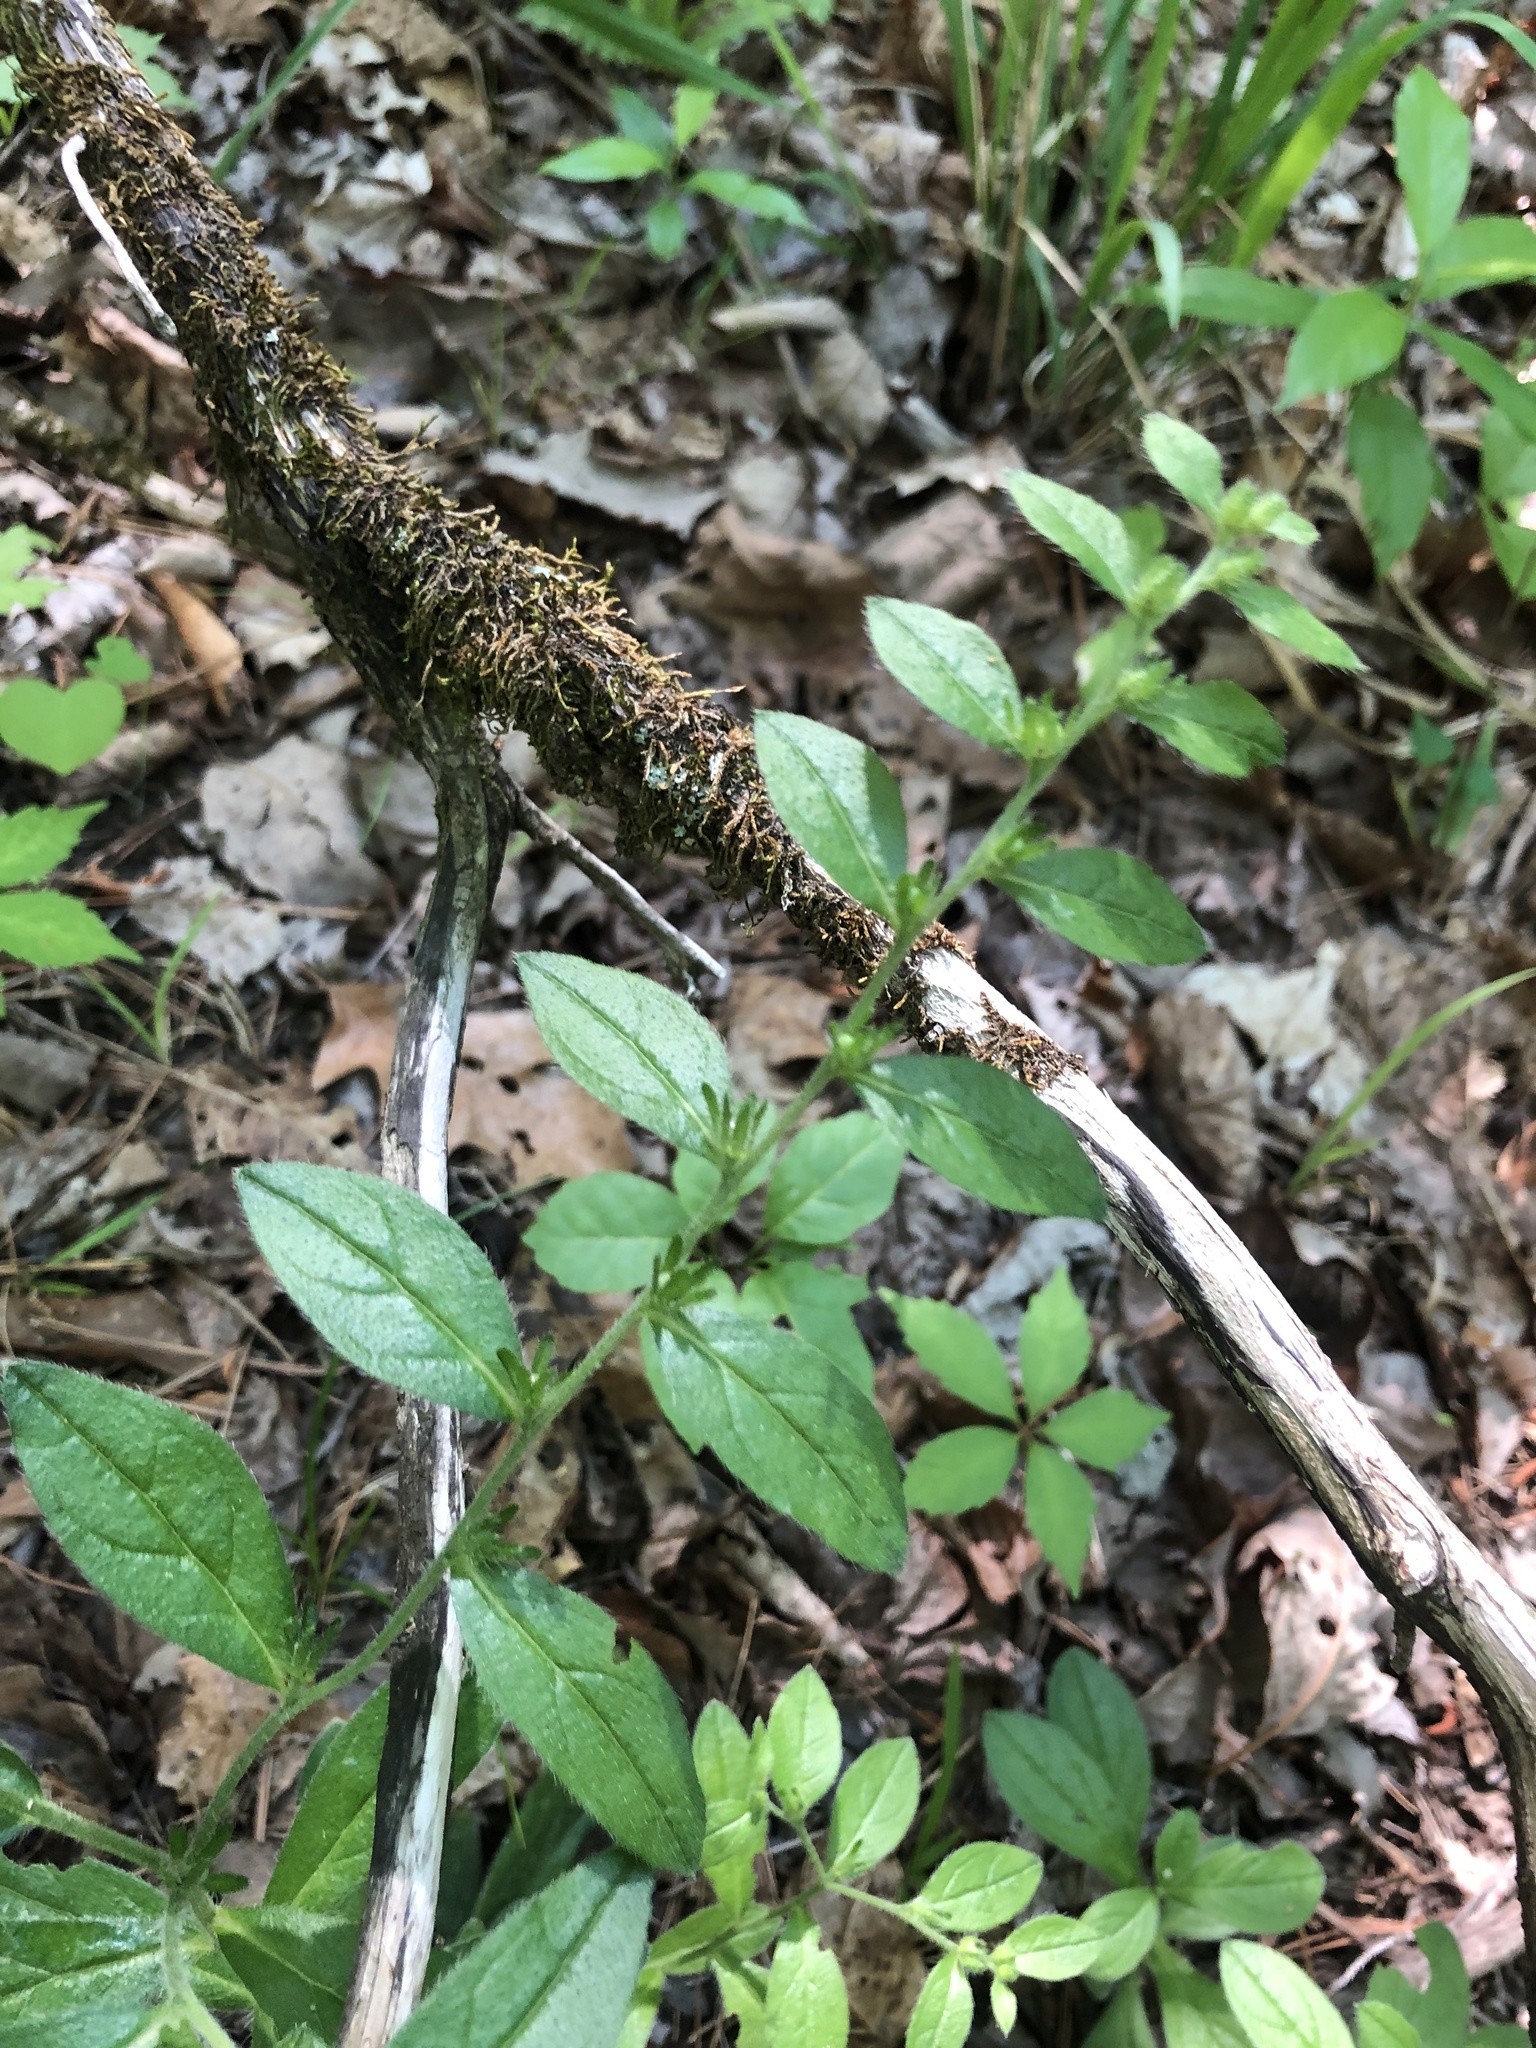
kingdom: Plantae
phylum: Tracheophyta
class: Magnoliopsida
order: Boraginales
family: Boraginaceae
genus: Lithospermum
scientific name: Lithospermum tuberosum
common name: Southern stoneseed
